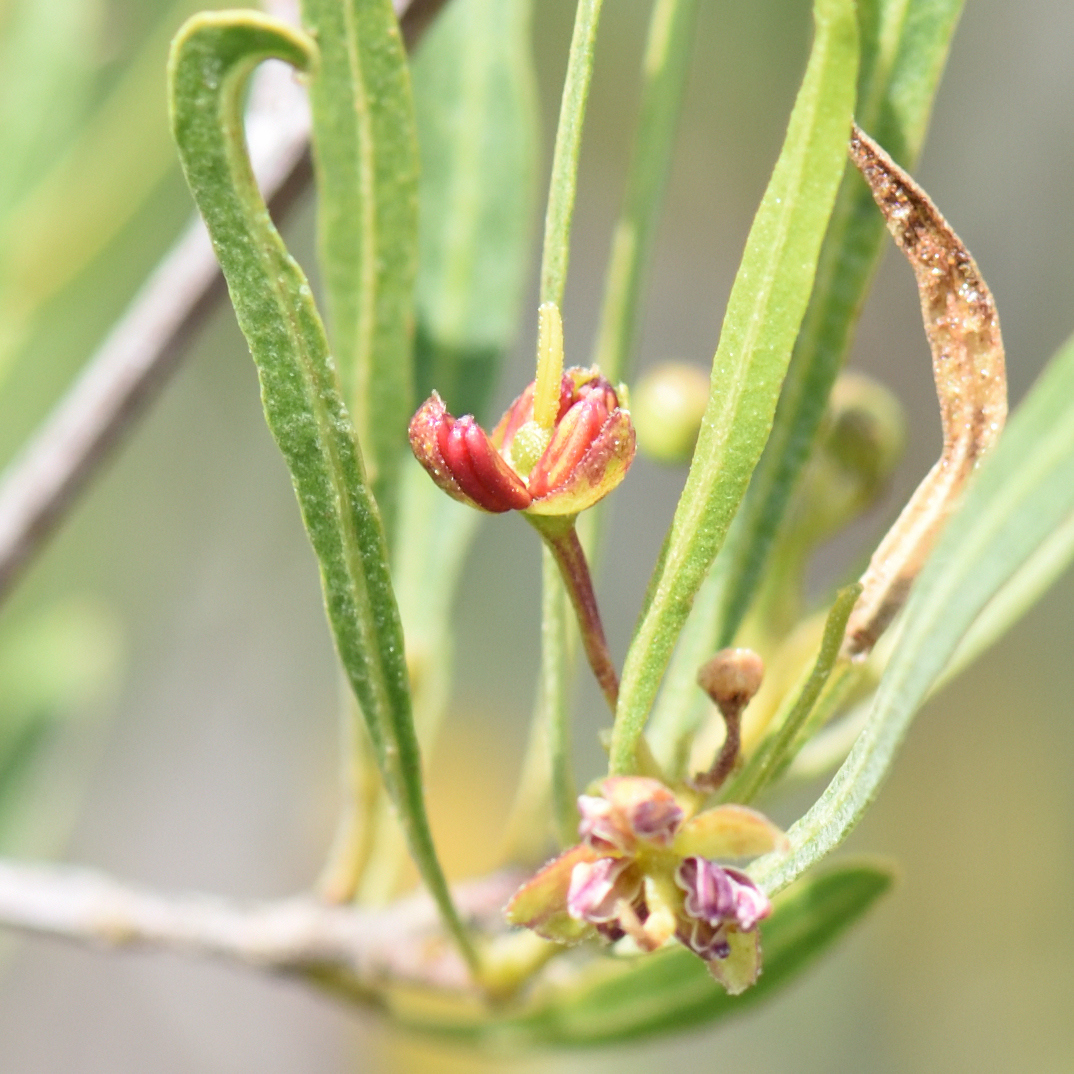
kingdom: Plantae
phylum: Tracheophyta
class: Magnoliopsida
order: Sapindales
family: Sapindaceae
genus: Dodonaea
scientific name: Dodonaea viscosa
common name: Hopbush
